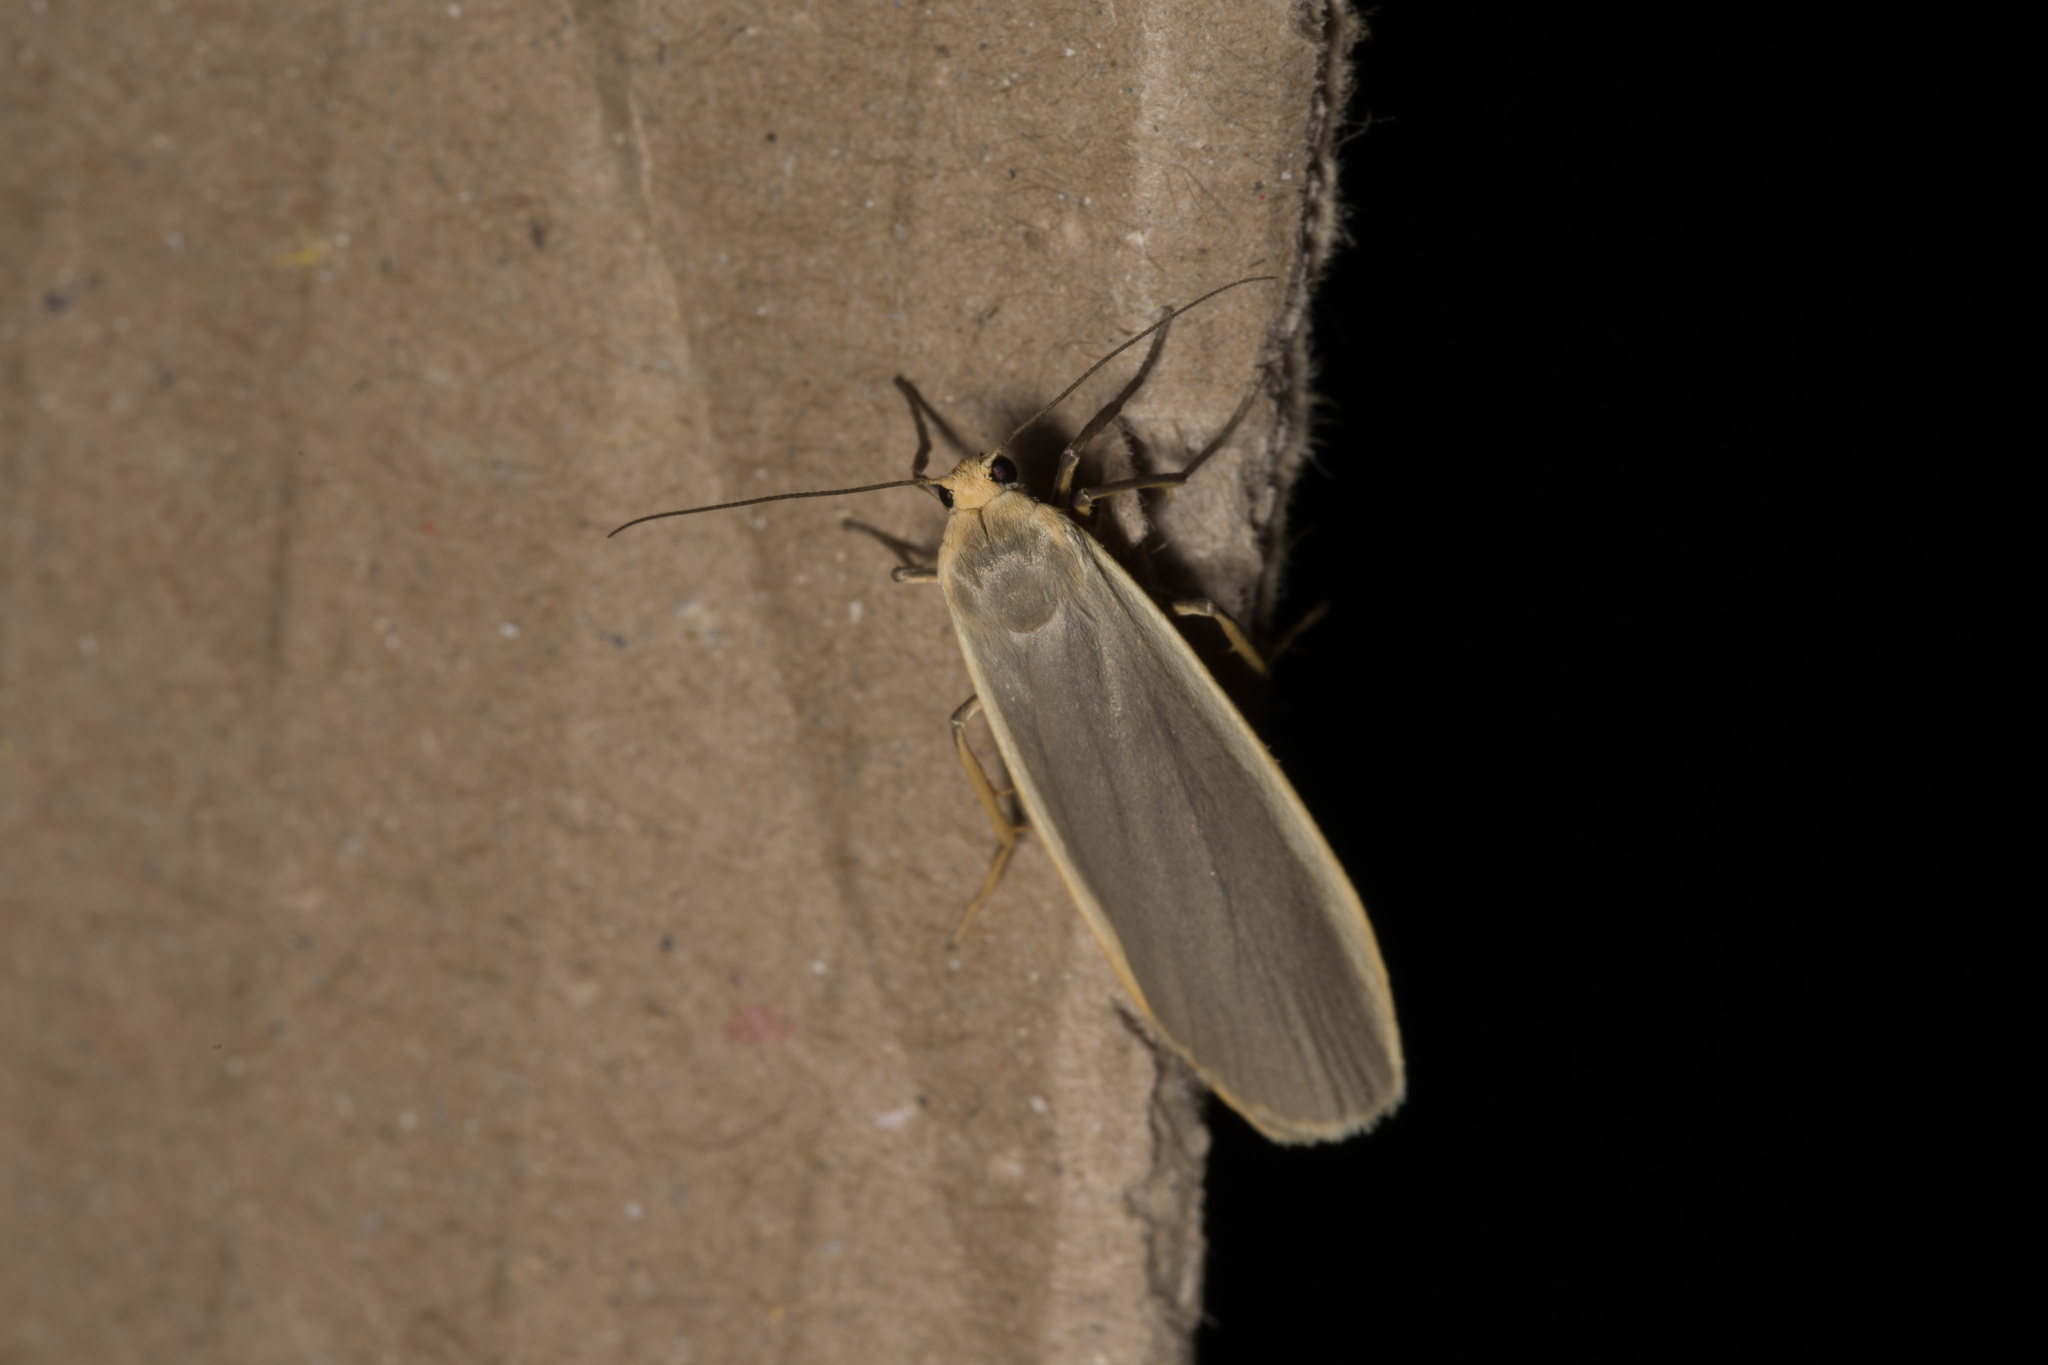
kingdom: Animalia
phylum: Arthropoda
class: Insecta
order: Lepidoptera
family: Erebidae
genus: Nyea
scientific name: Nyea lurideola
